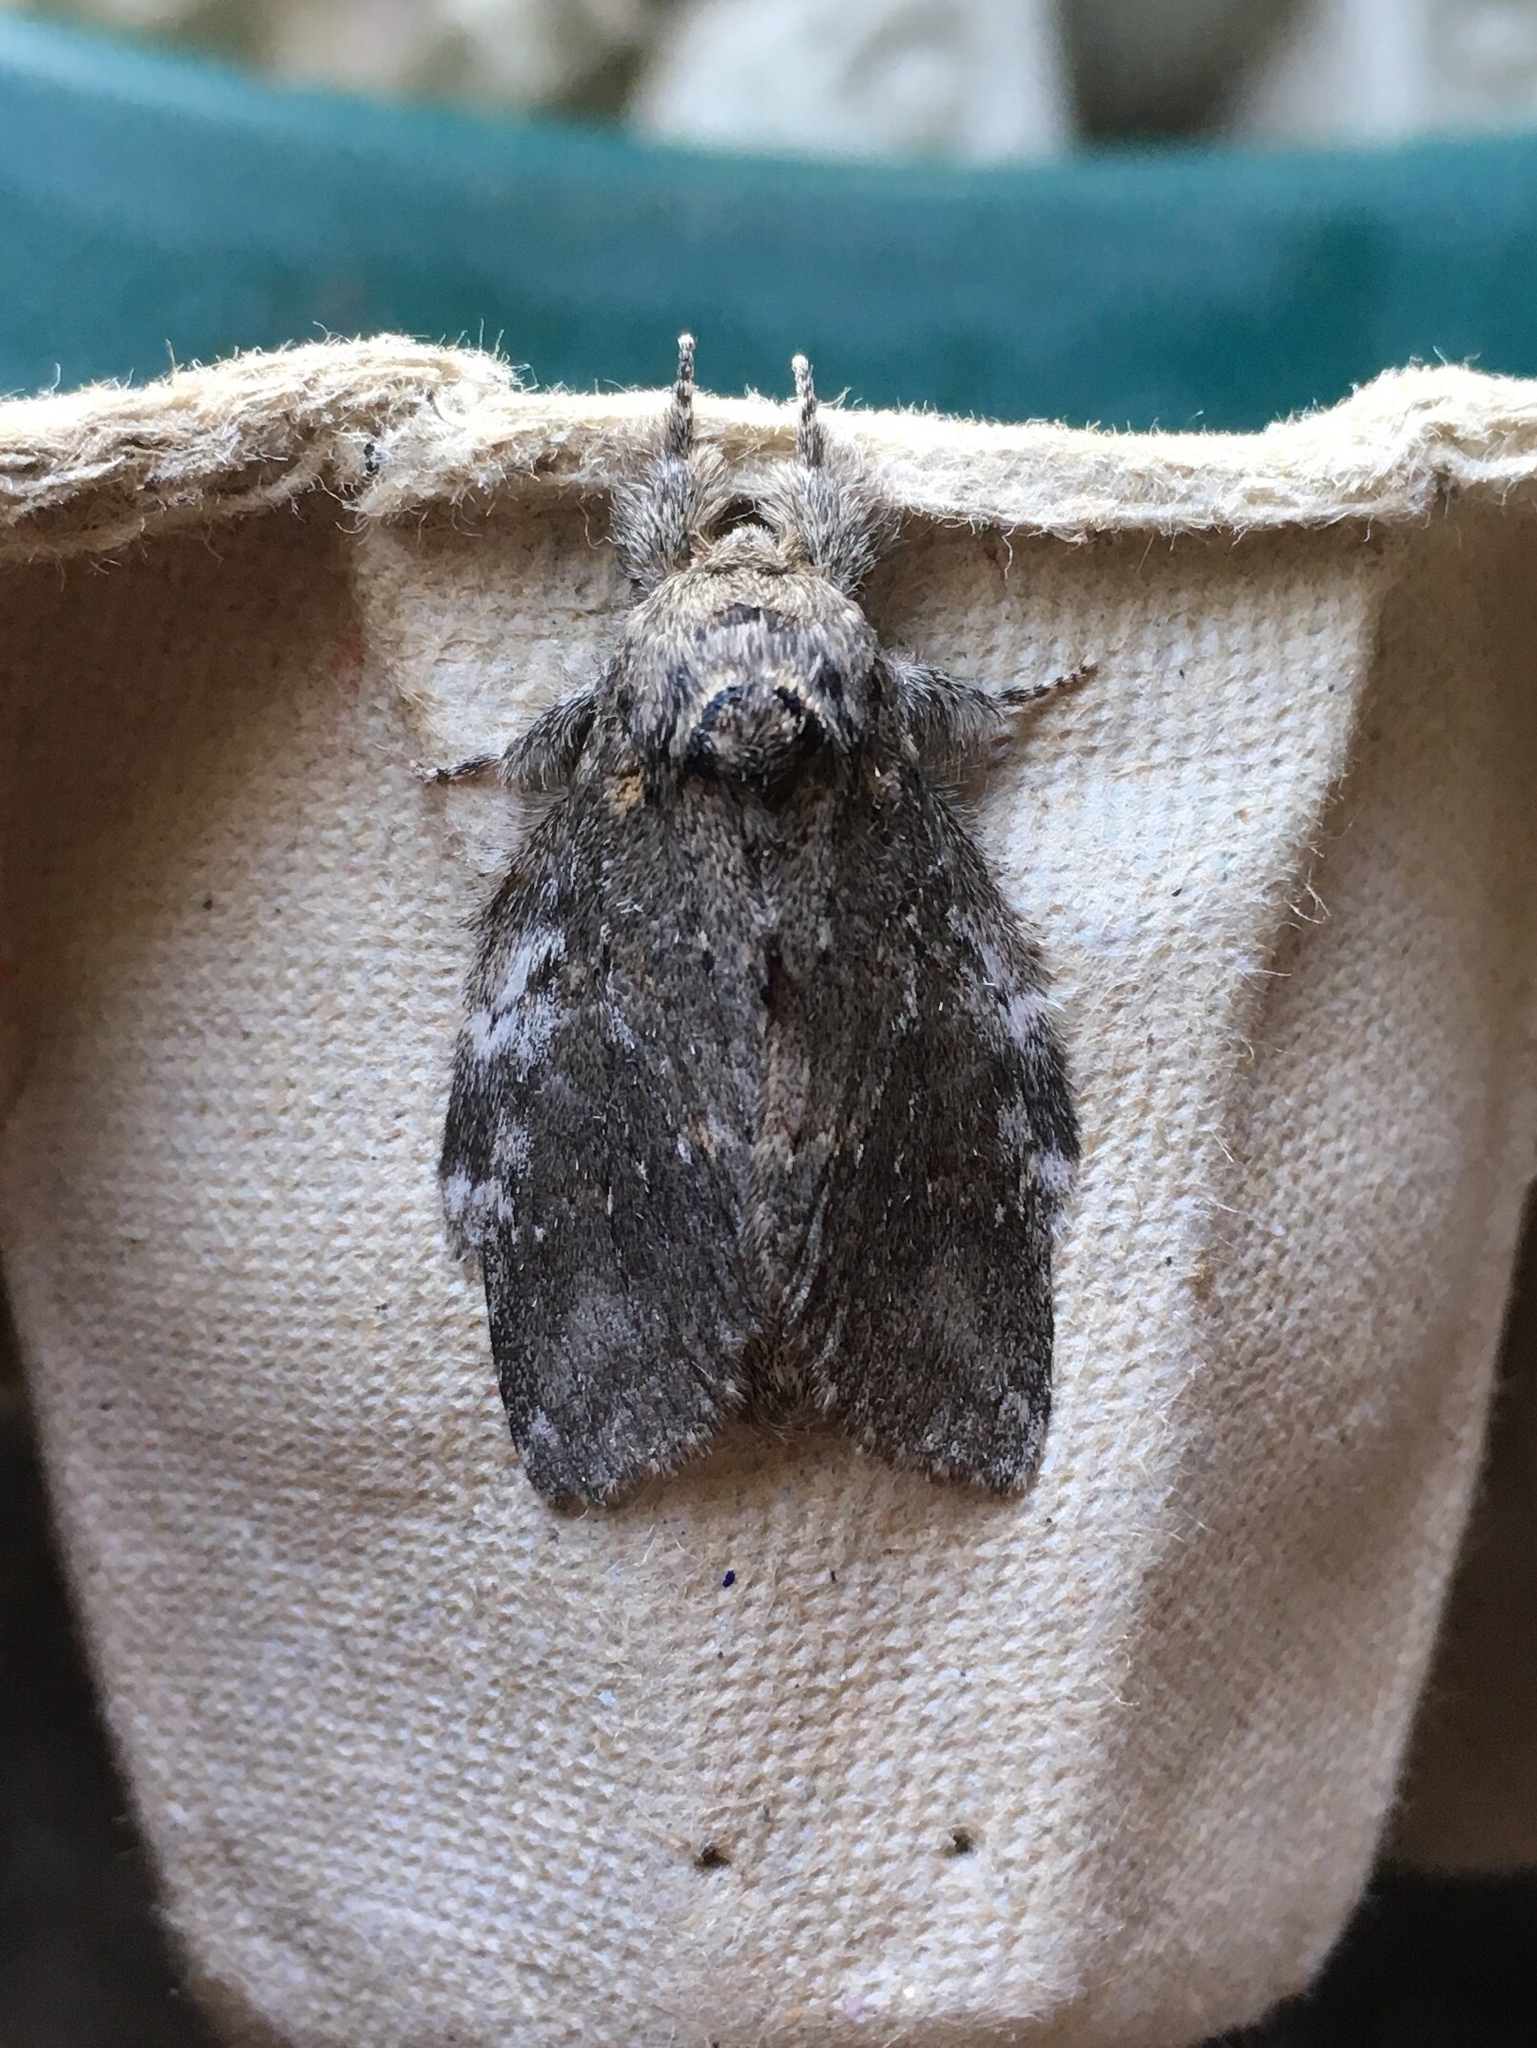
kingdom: Animalia
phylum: Arthropoda
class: Insecta
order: Lepidoptera
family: Notodontidae
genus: Peridea
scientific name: Peridea angulosa
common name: Angulose prominent
